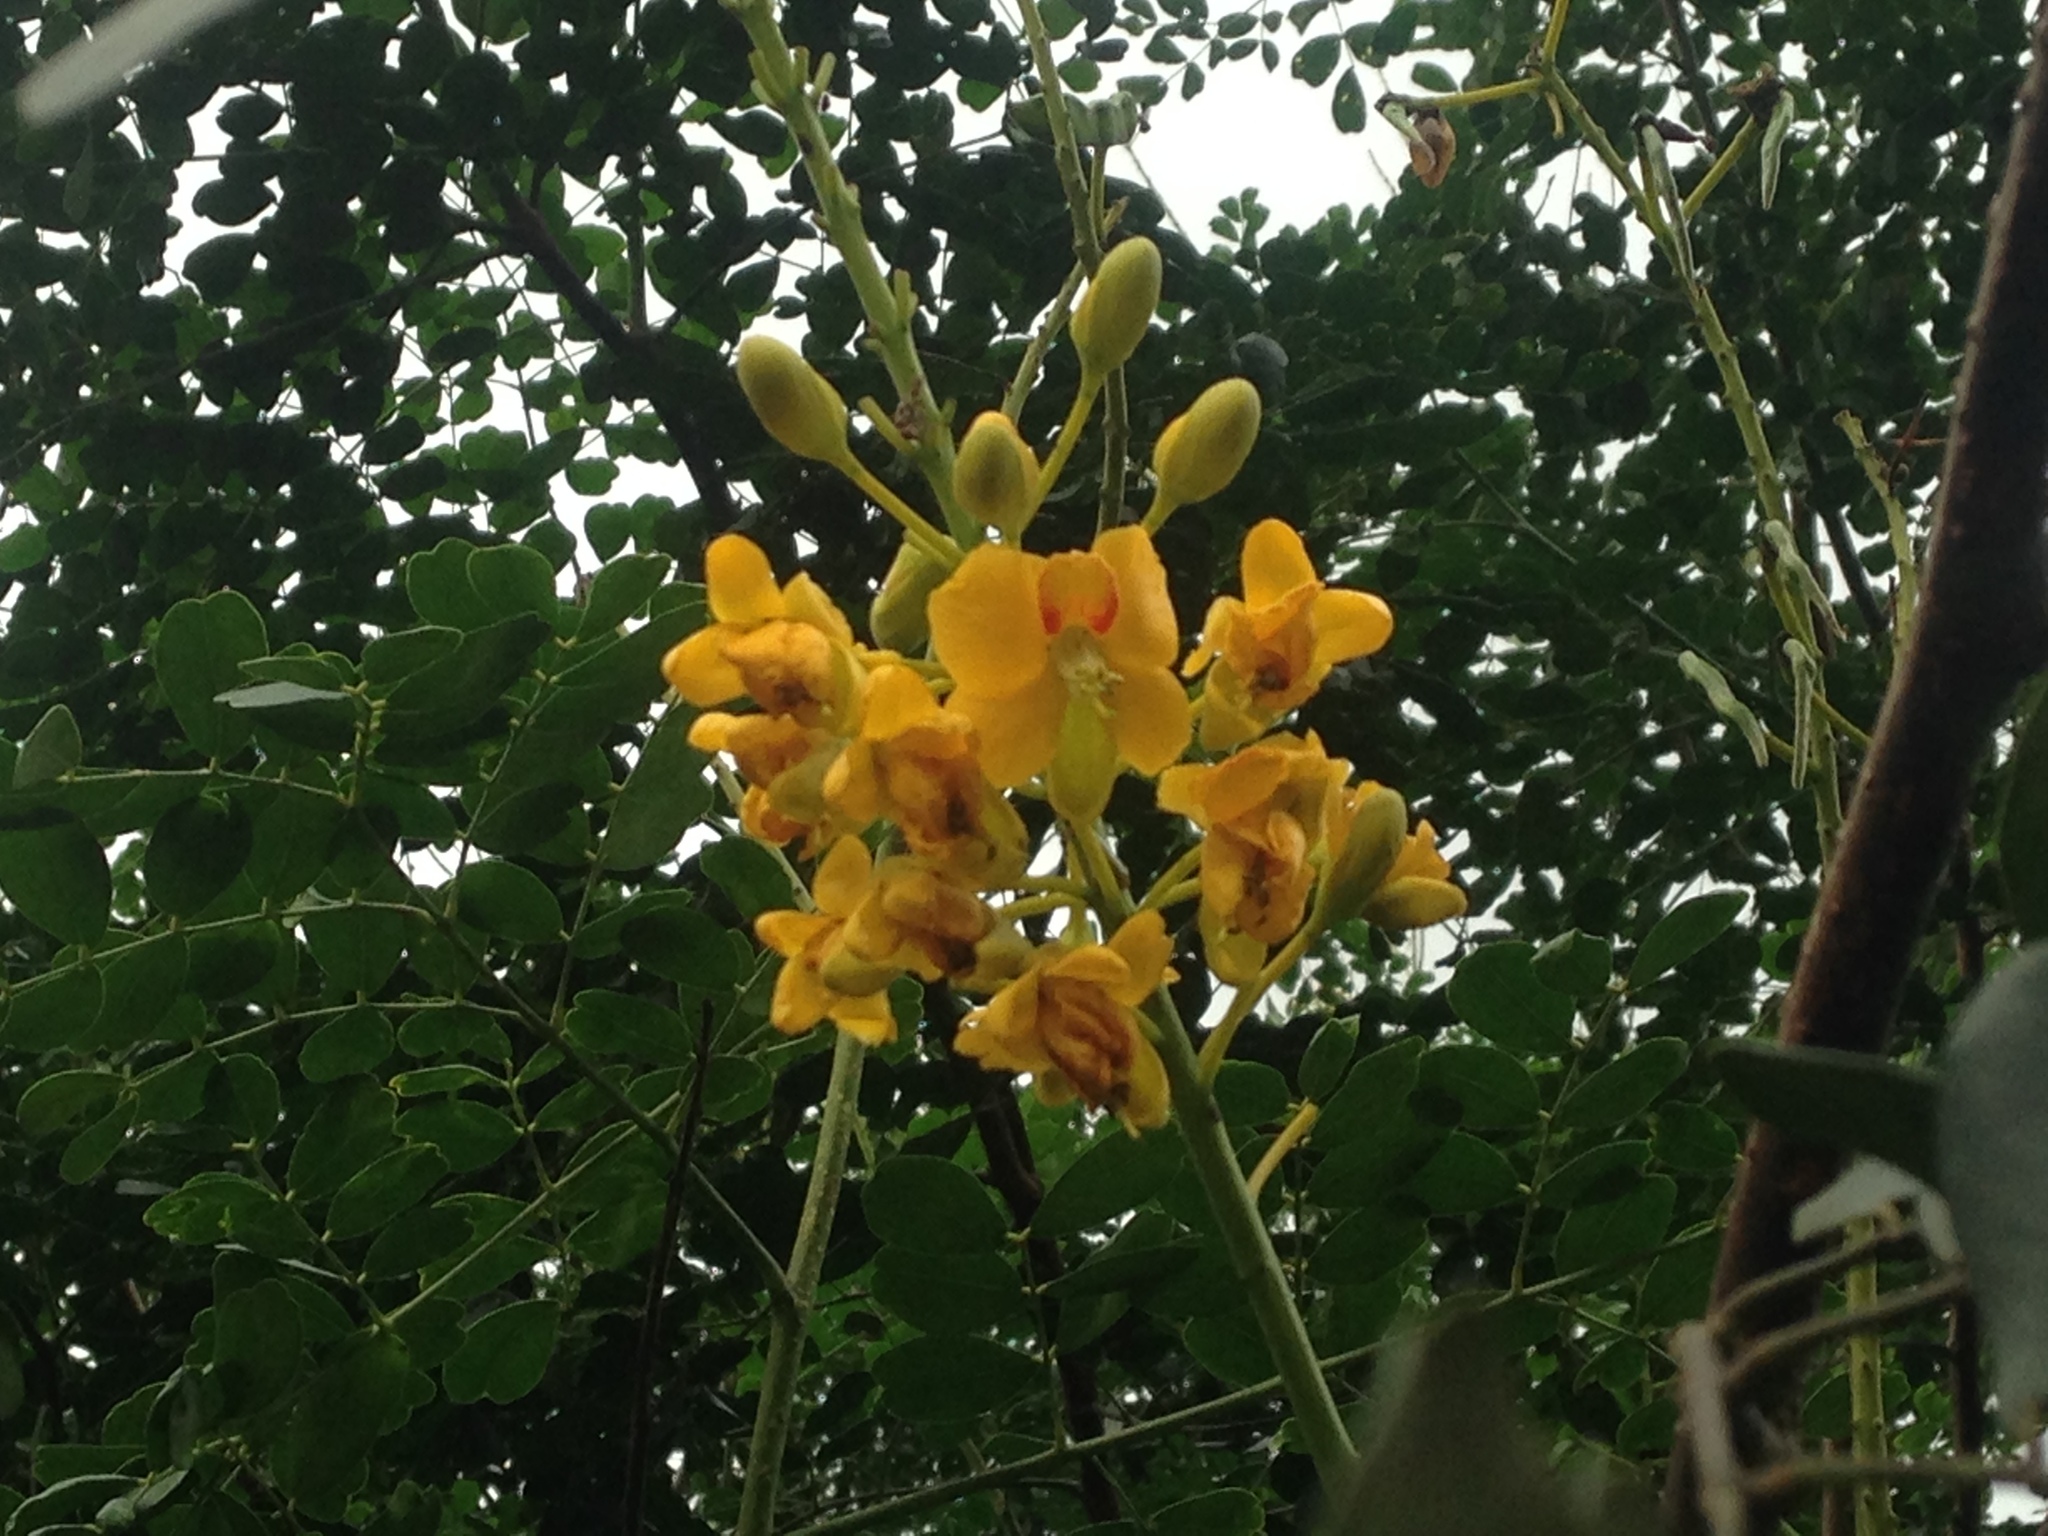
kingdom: Plantae
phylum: Tracheophyta
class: Magnoliopsida
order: Fabales
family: Fabaceae
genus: Tara
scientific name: Tara cacalaco
